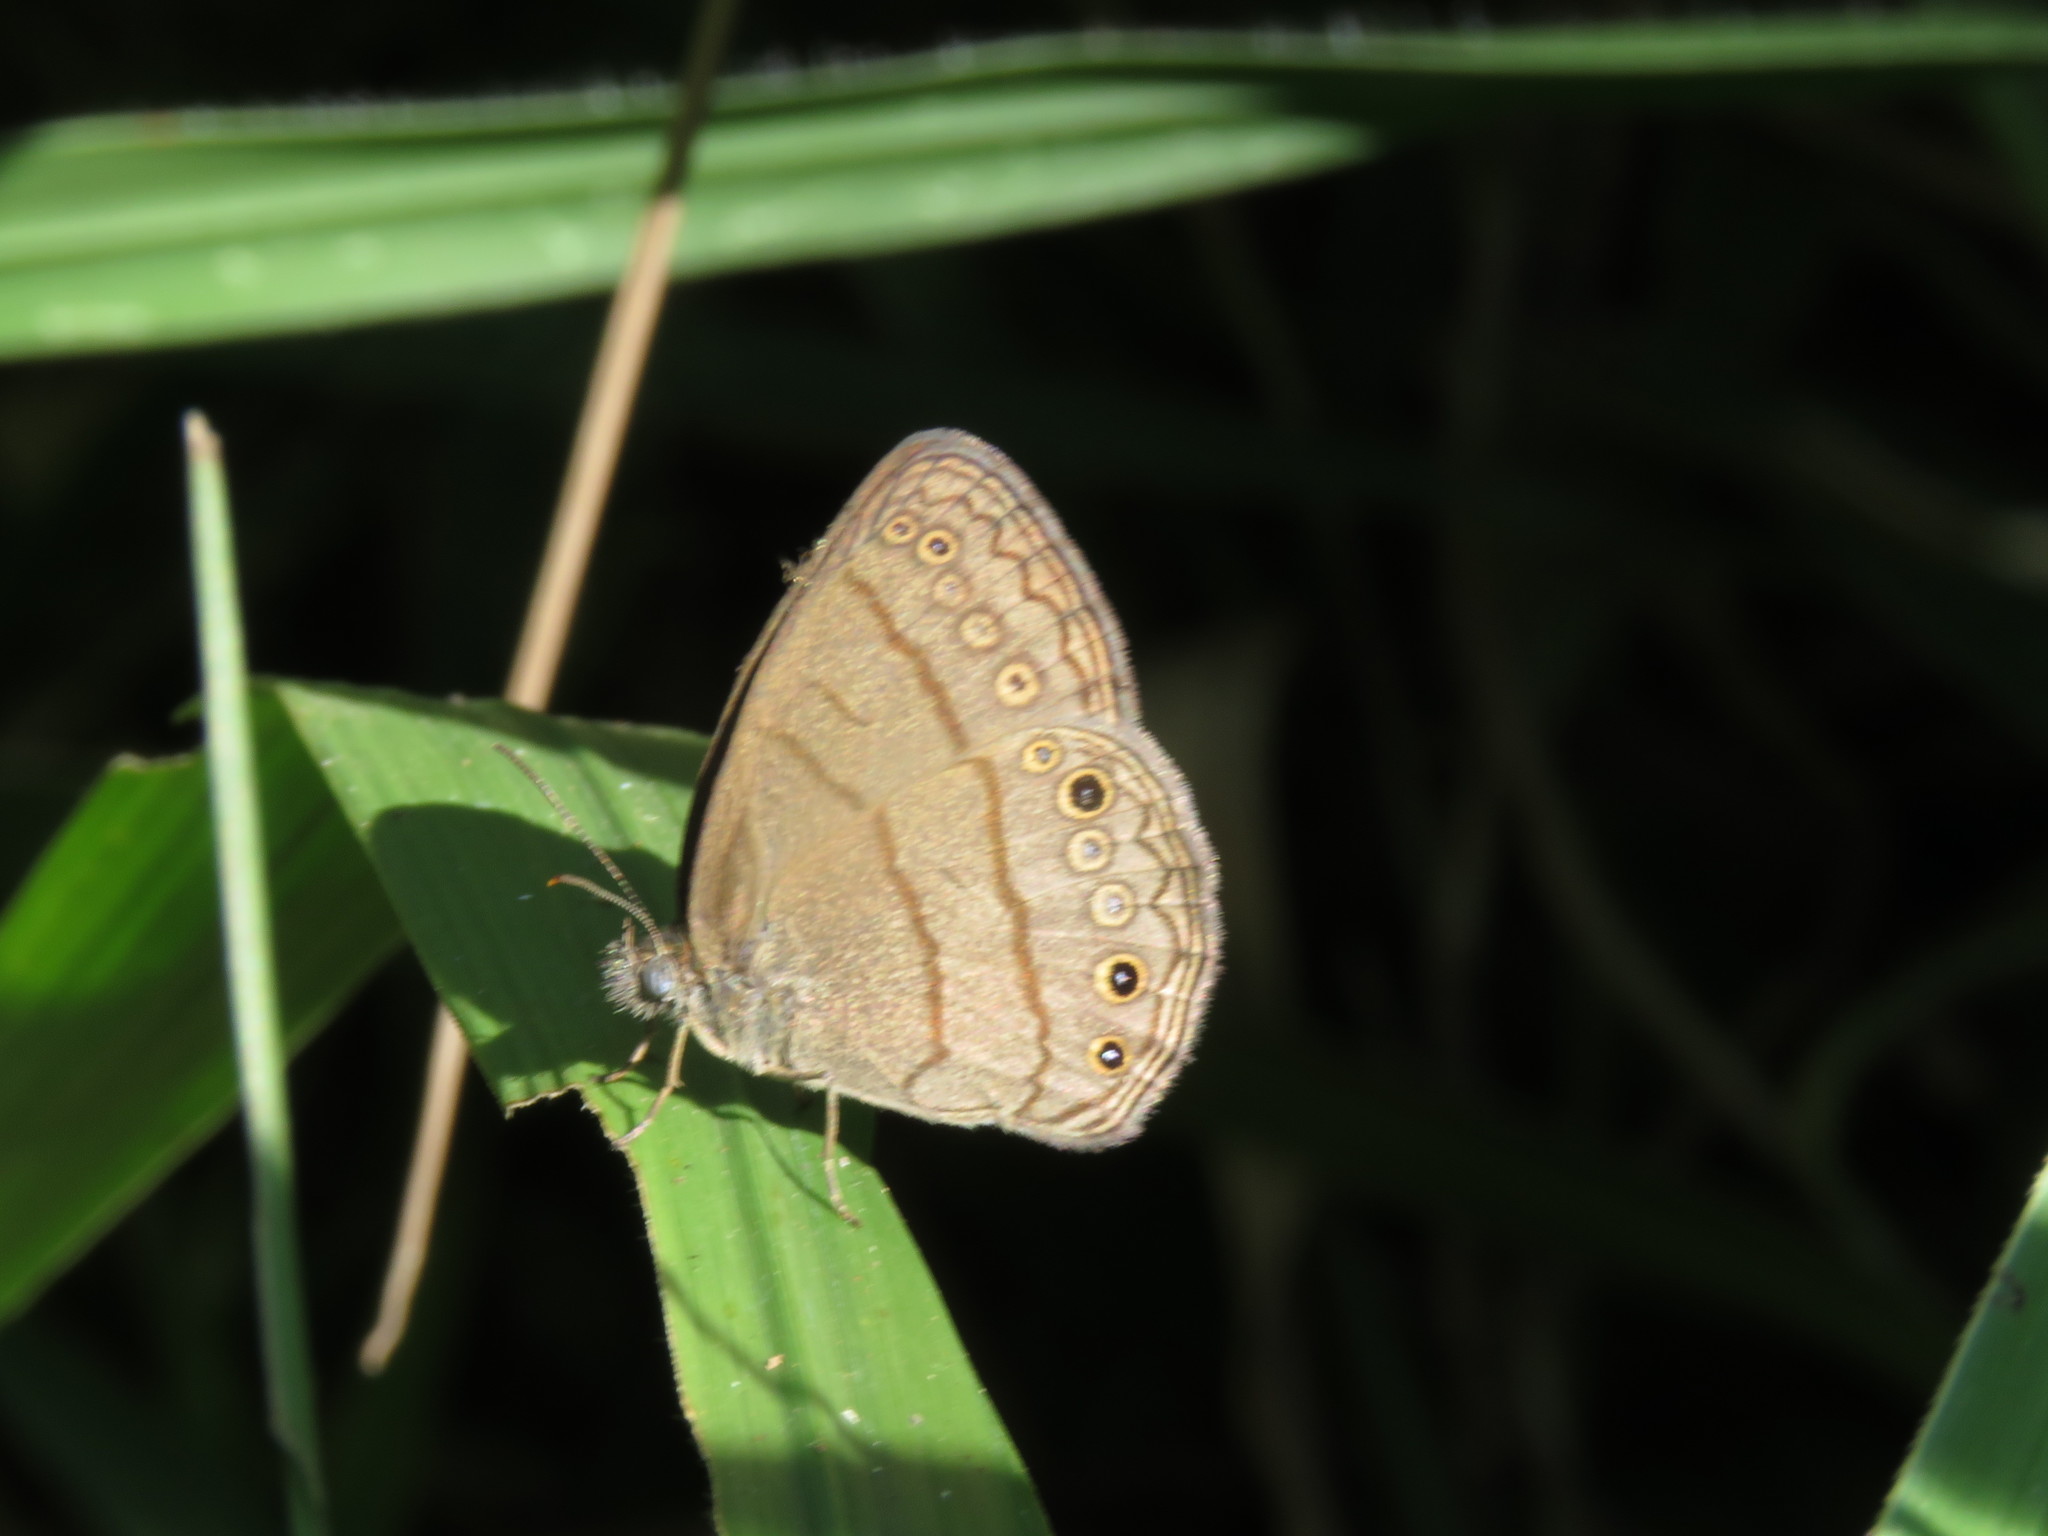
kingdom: Animalia
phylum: Arthropoda
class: Insecta
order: Lepidoptera
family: Nymphalidae
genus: Hermeuptychia
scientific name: Hermeuptychia fallax
